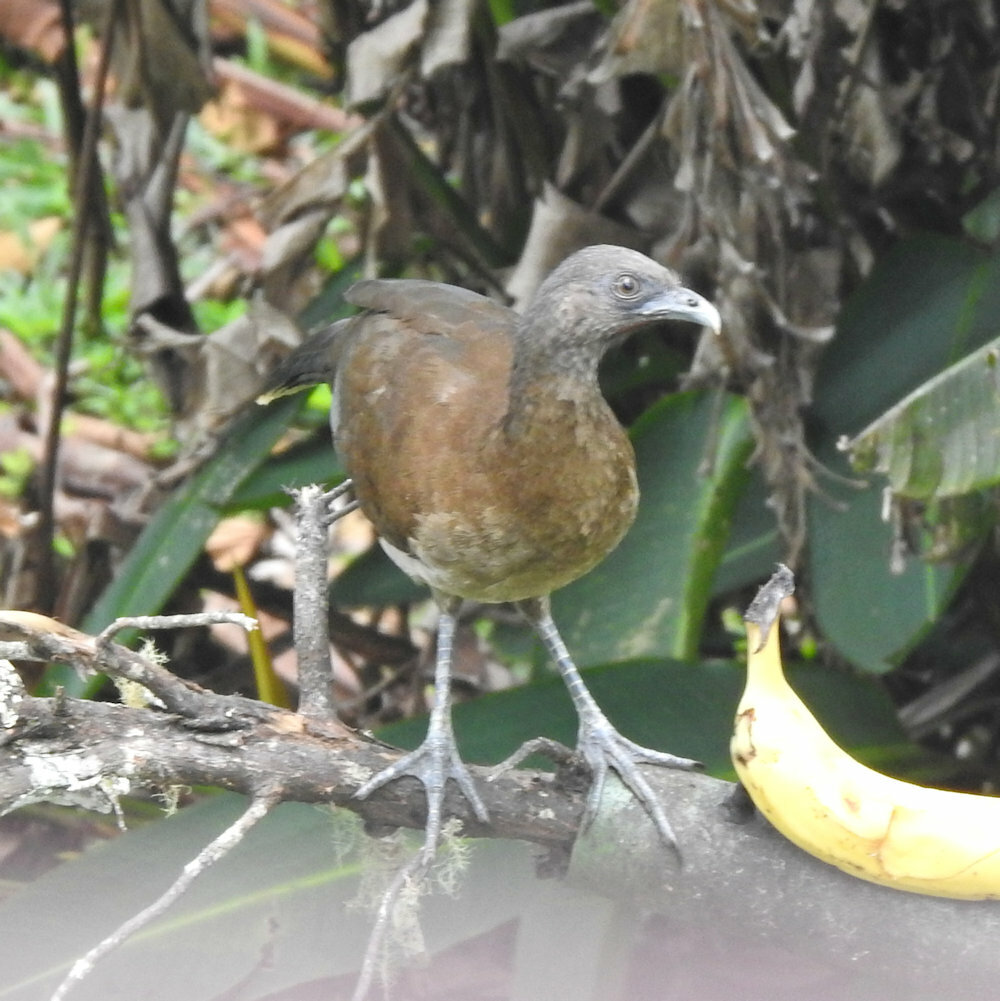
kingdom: Animalia
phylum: Chordata
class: Aves
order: Galliformes
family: Cracidae
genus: Ortalis
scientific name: Ortalis cinereiceps
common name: Grey-headed chachalaca
